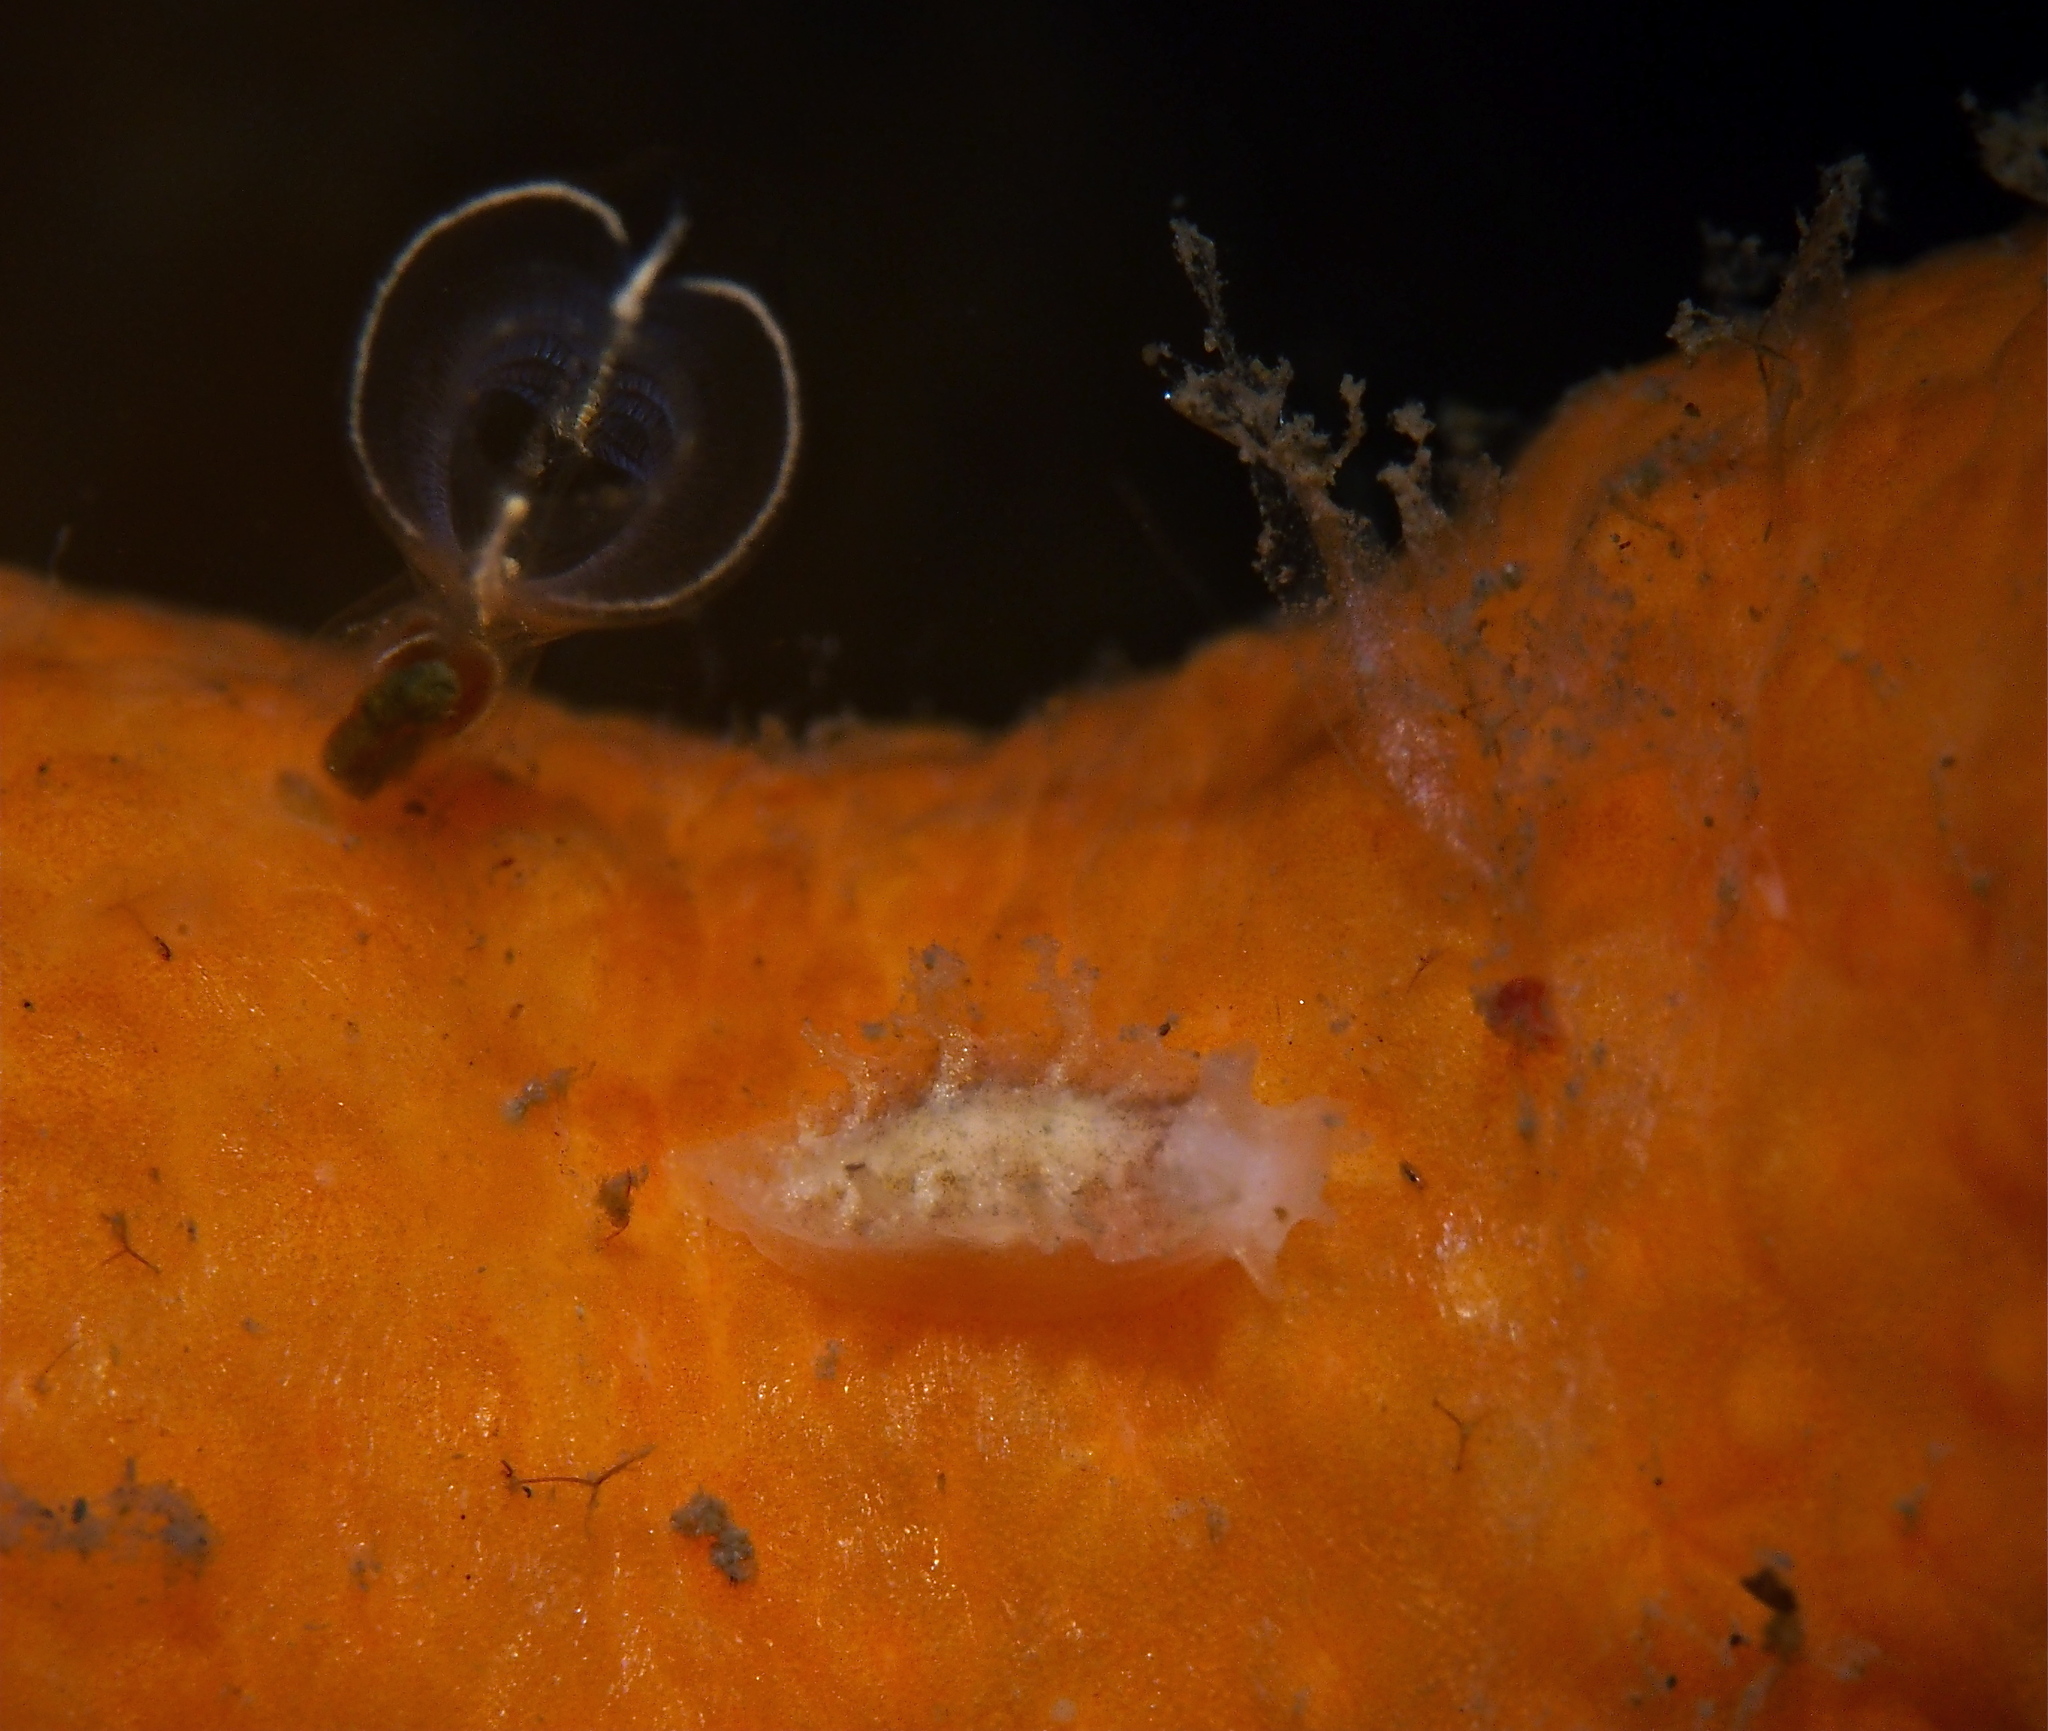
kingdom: Animalia
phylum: Mollusca
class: Gastropoda
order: Nudibranchia
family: Tritoniidae
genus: Tritonia
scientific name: Tritonia hombergii
